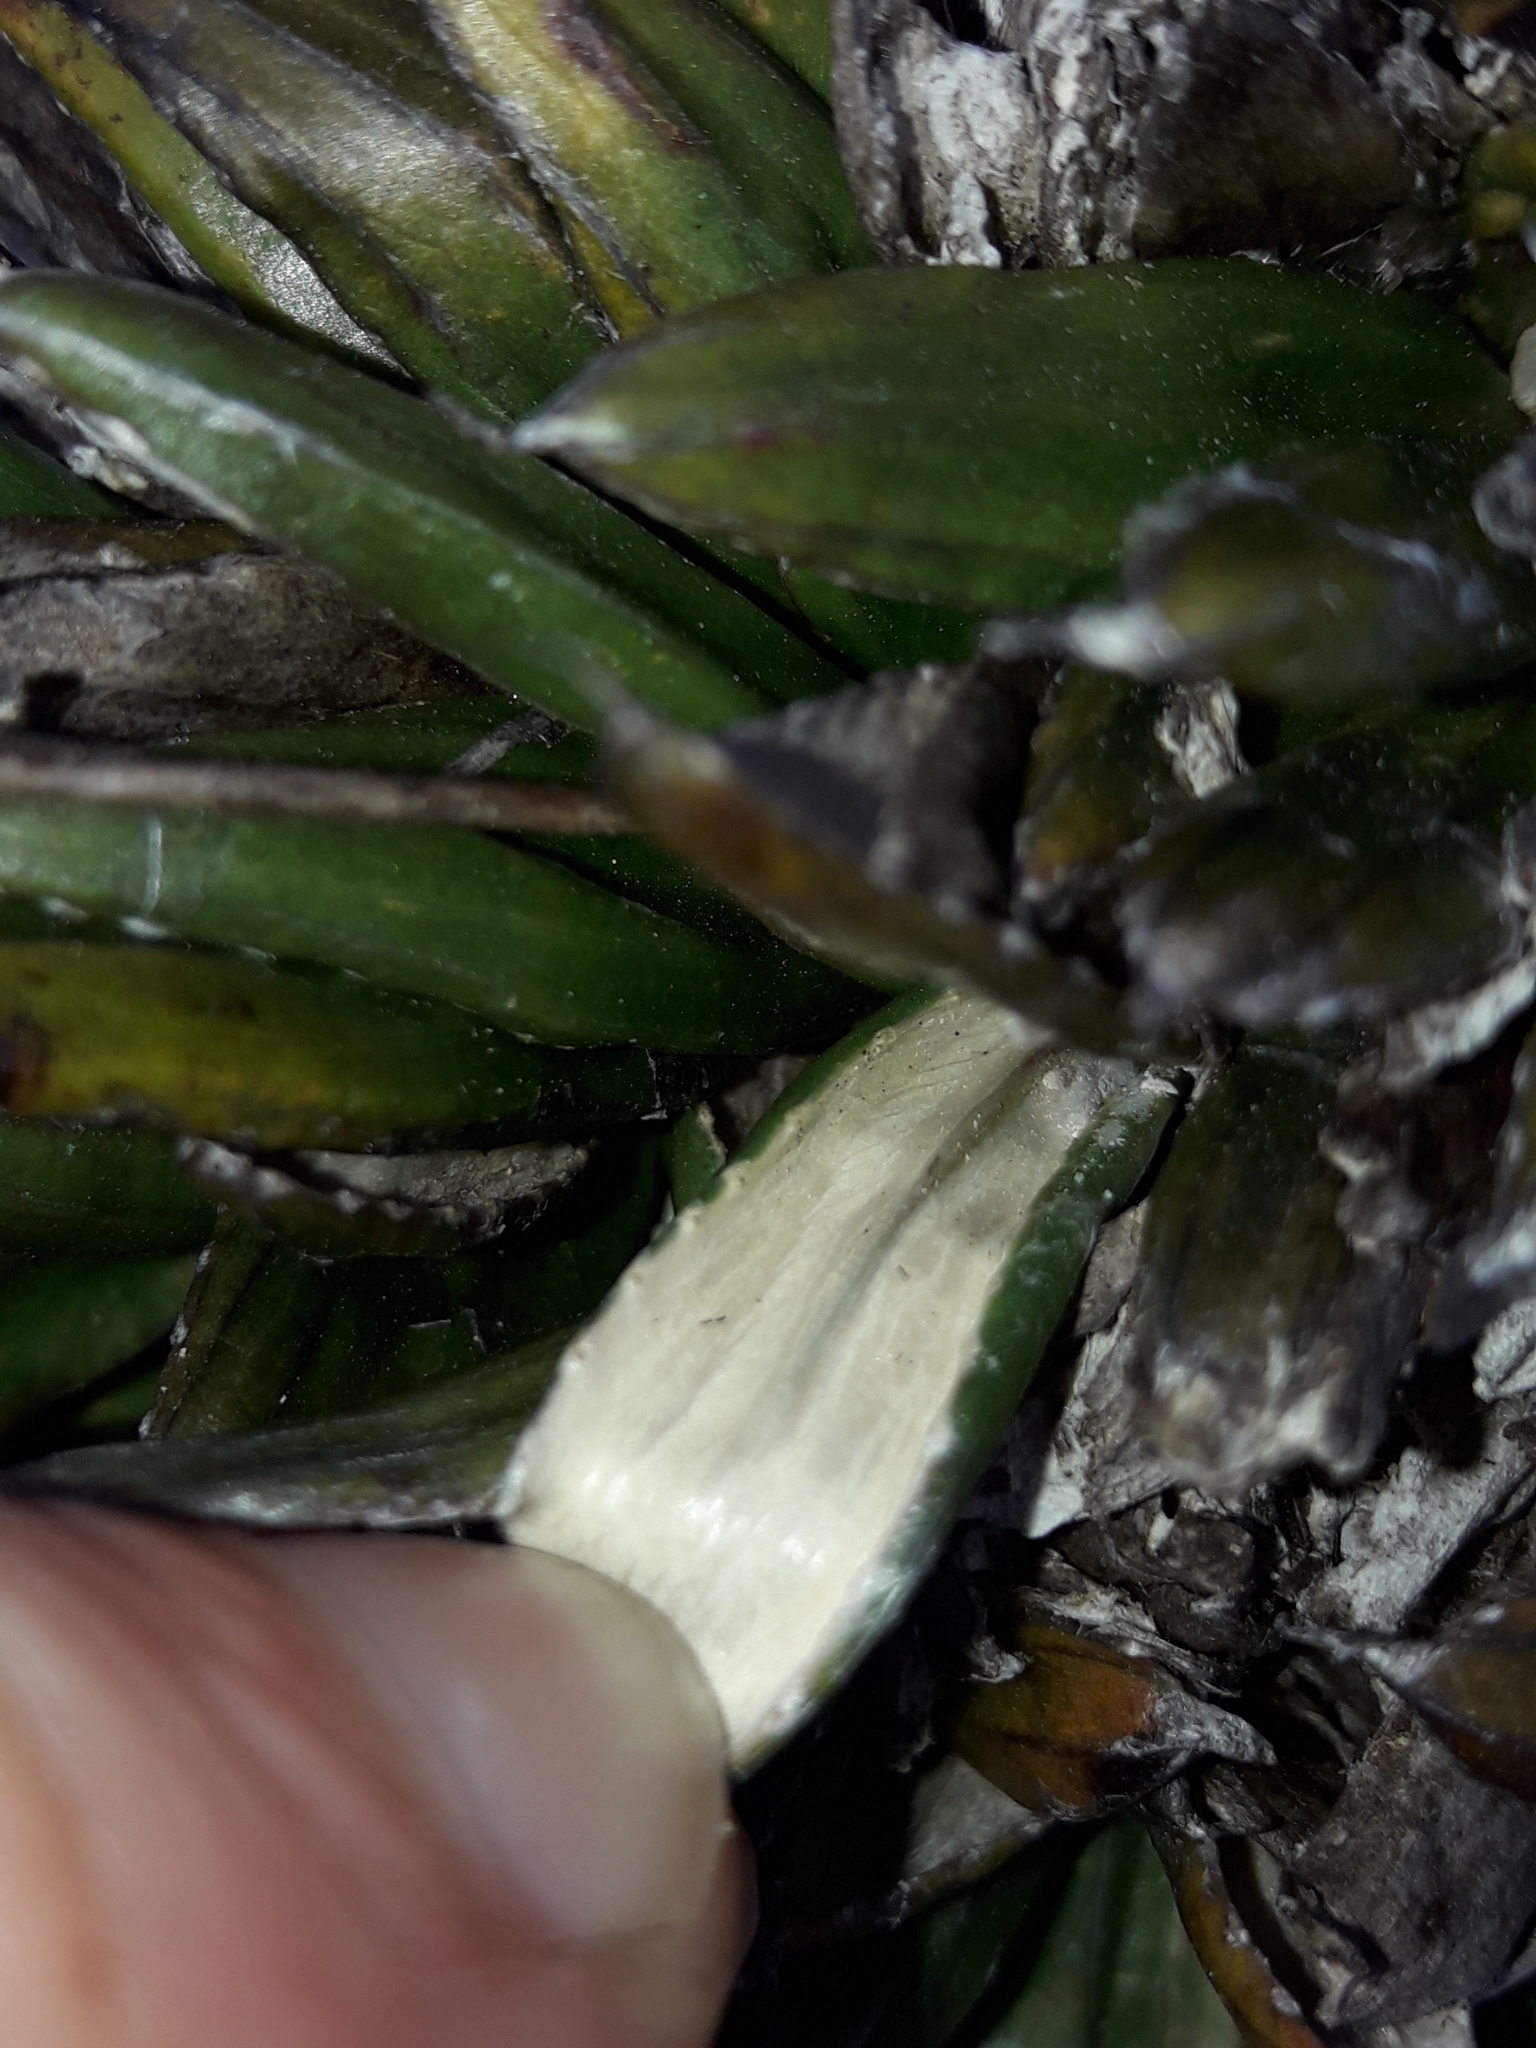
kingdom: Plantae
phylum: Tracheophyta
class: Magnoliopsida
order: Asterales
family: Asteraceae
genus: Celmisia
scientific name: Celmisia dubia
